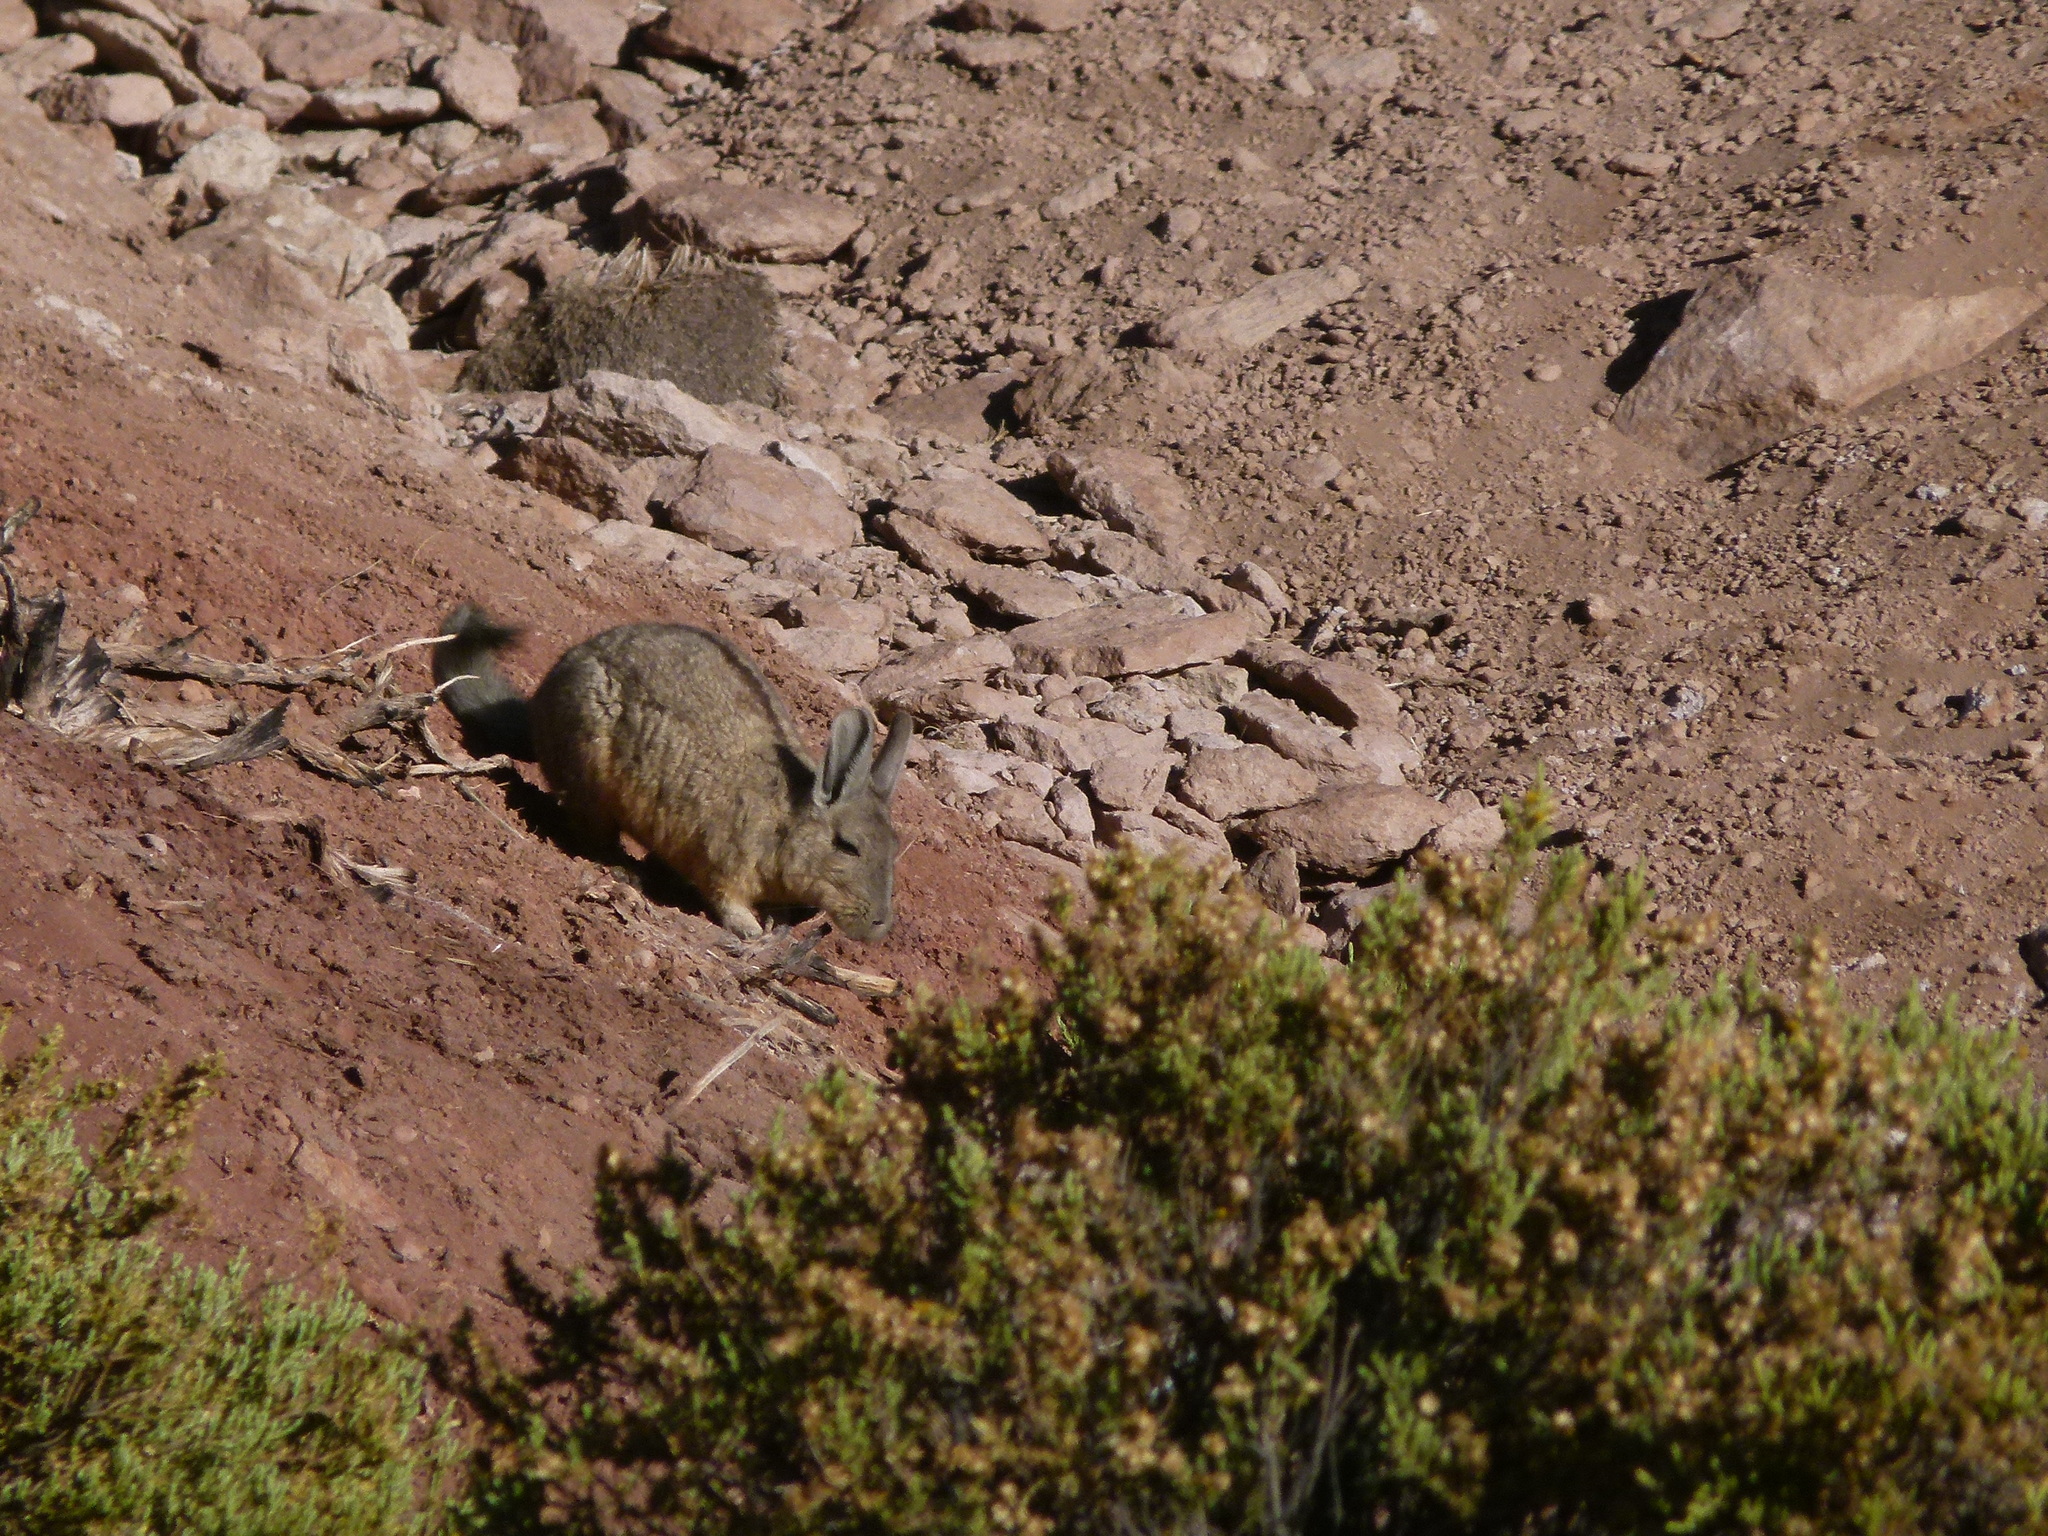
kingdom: Animalia
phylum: Chordata
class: Mammalia
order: Rodentia
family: Chinchillidae
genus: Lagidium
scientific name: Lagidium viscacia
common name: Southern viscacha
